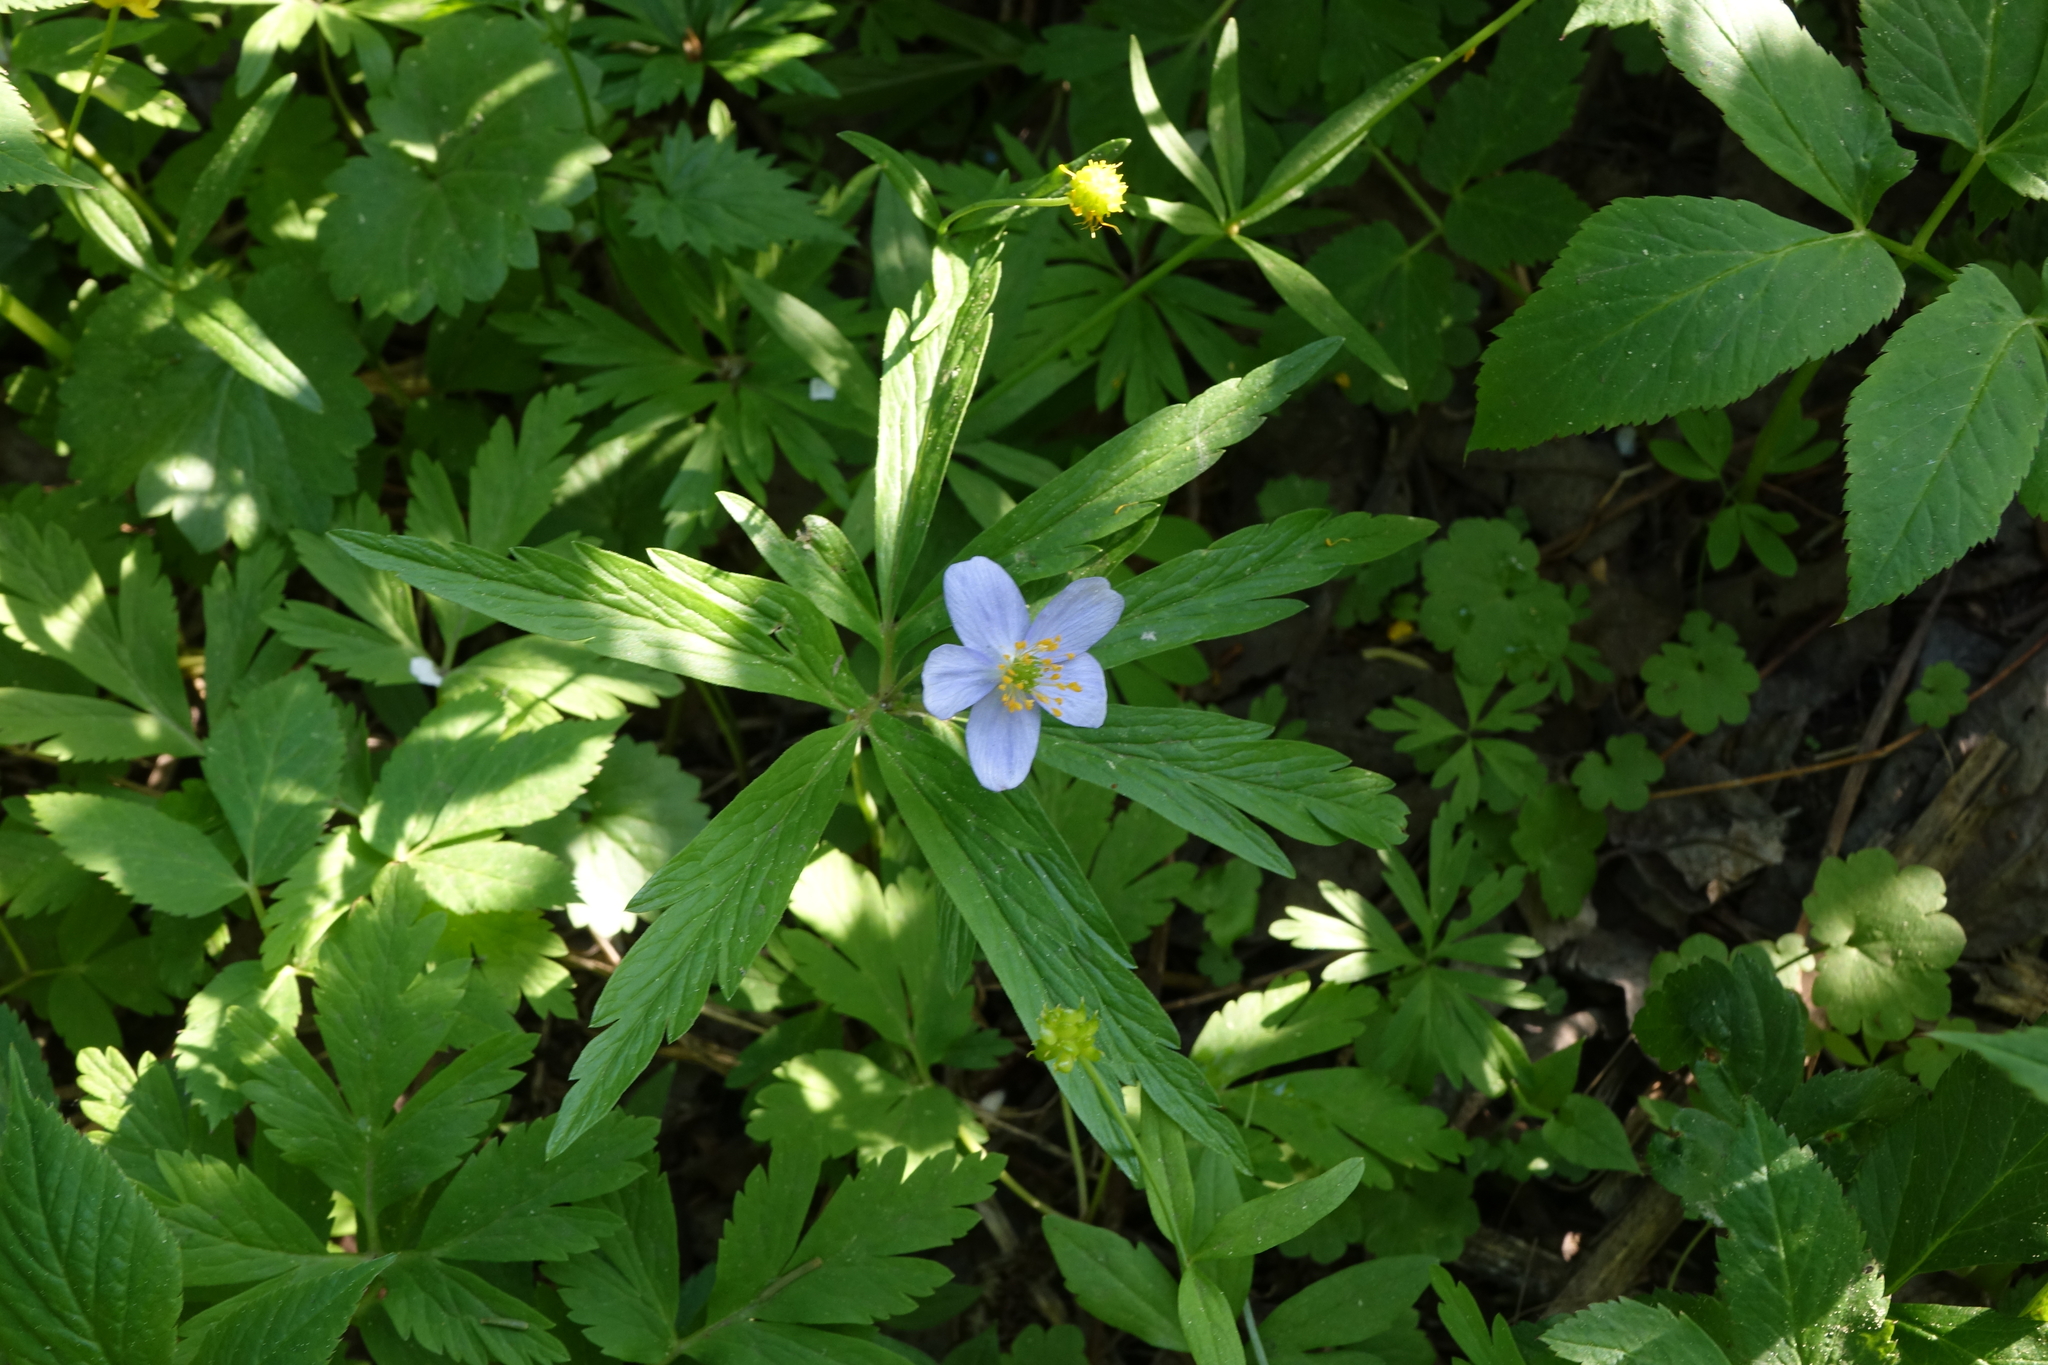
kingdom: Plantae
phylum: Tracheophyta
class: Magnoliopsida
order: Ranunculales
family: Ranunculaceae
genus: Anemone
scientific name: Anemone caerulea
